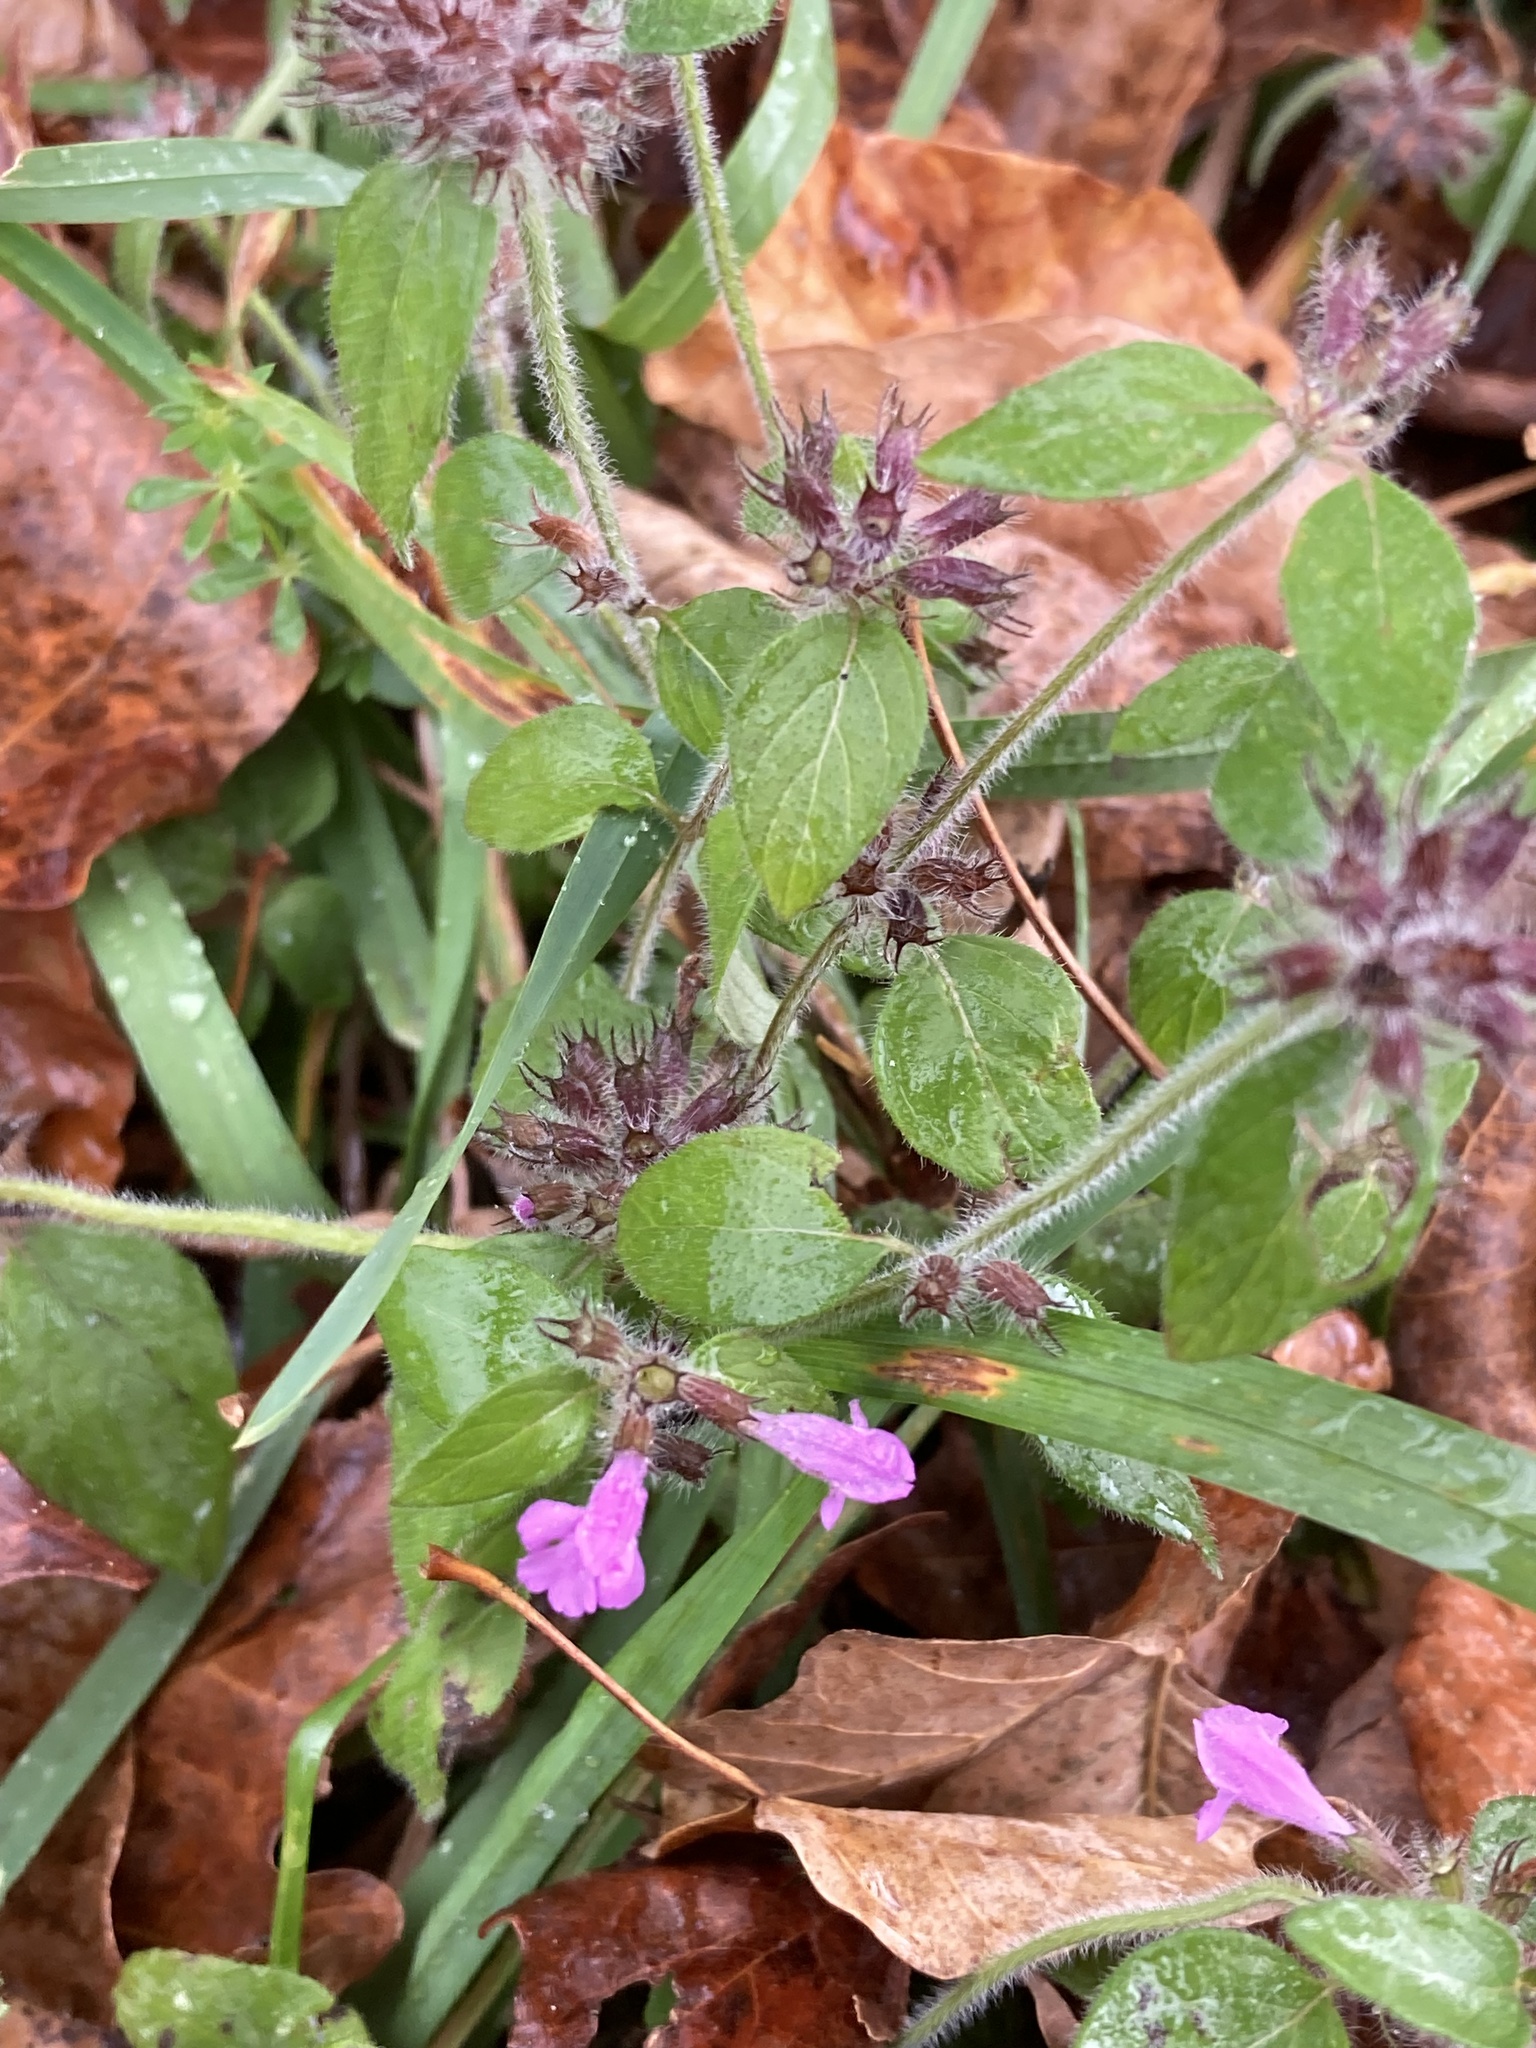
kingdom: Plantae
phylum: Tracheophyta
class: Magnoliopsida
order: Lamiales
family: Lamiaceae
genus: Clinopodium
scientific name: Clinopodium vulgare
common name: Wild basil
